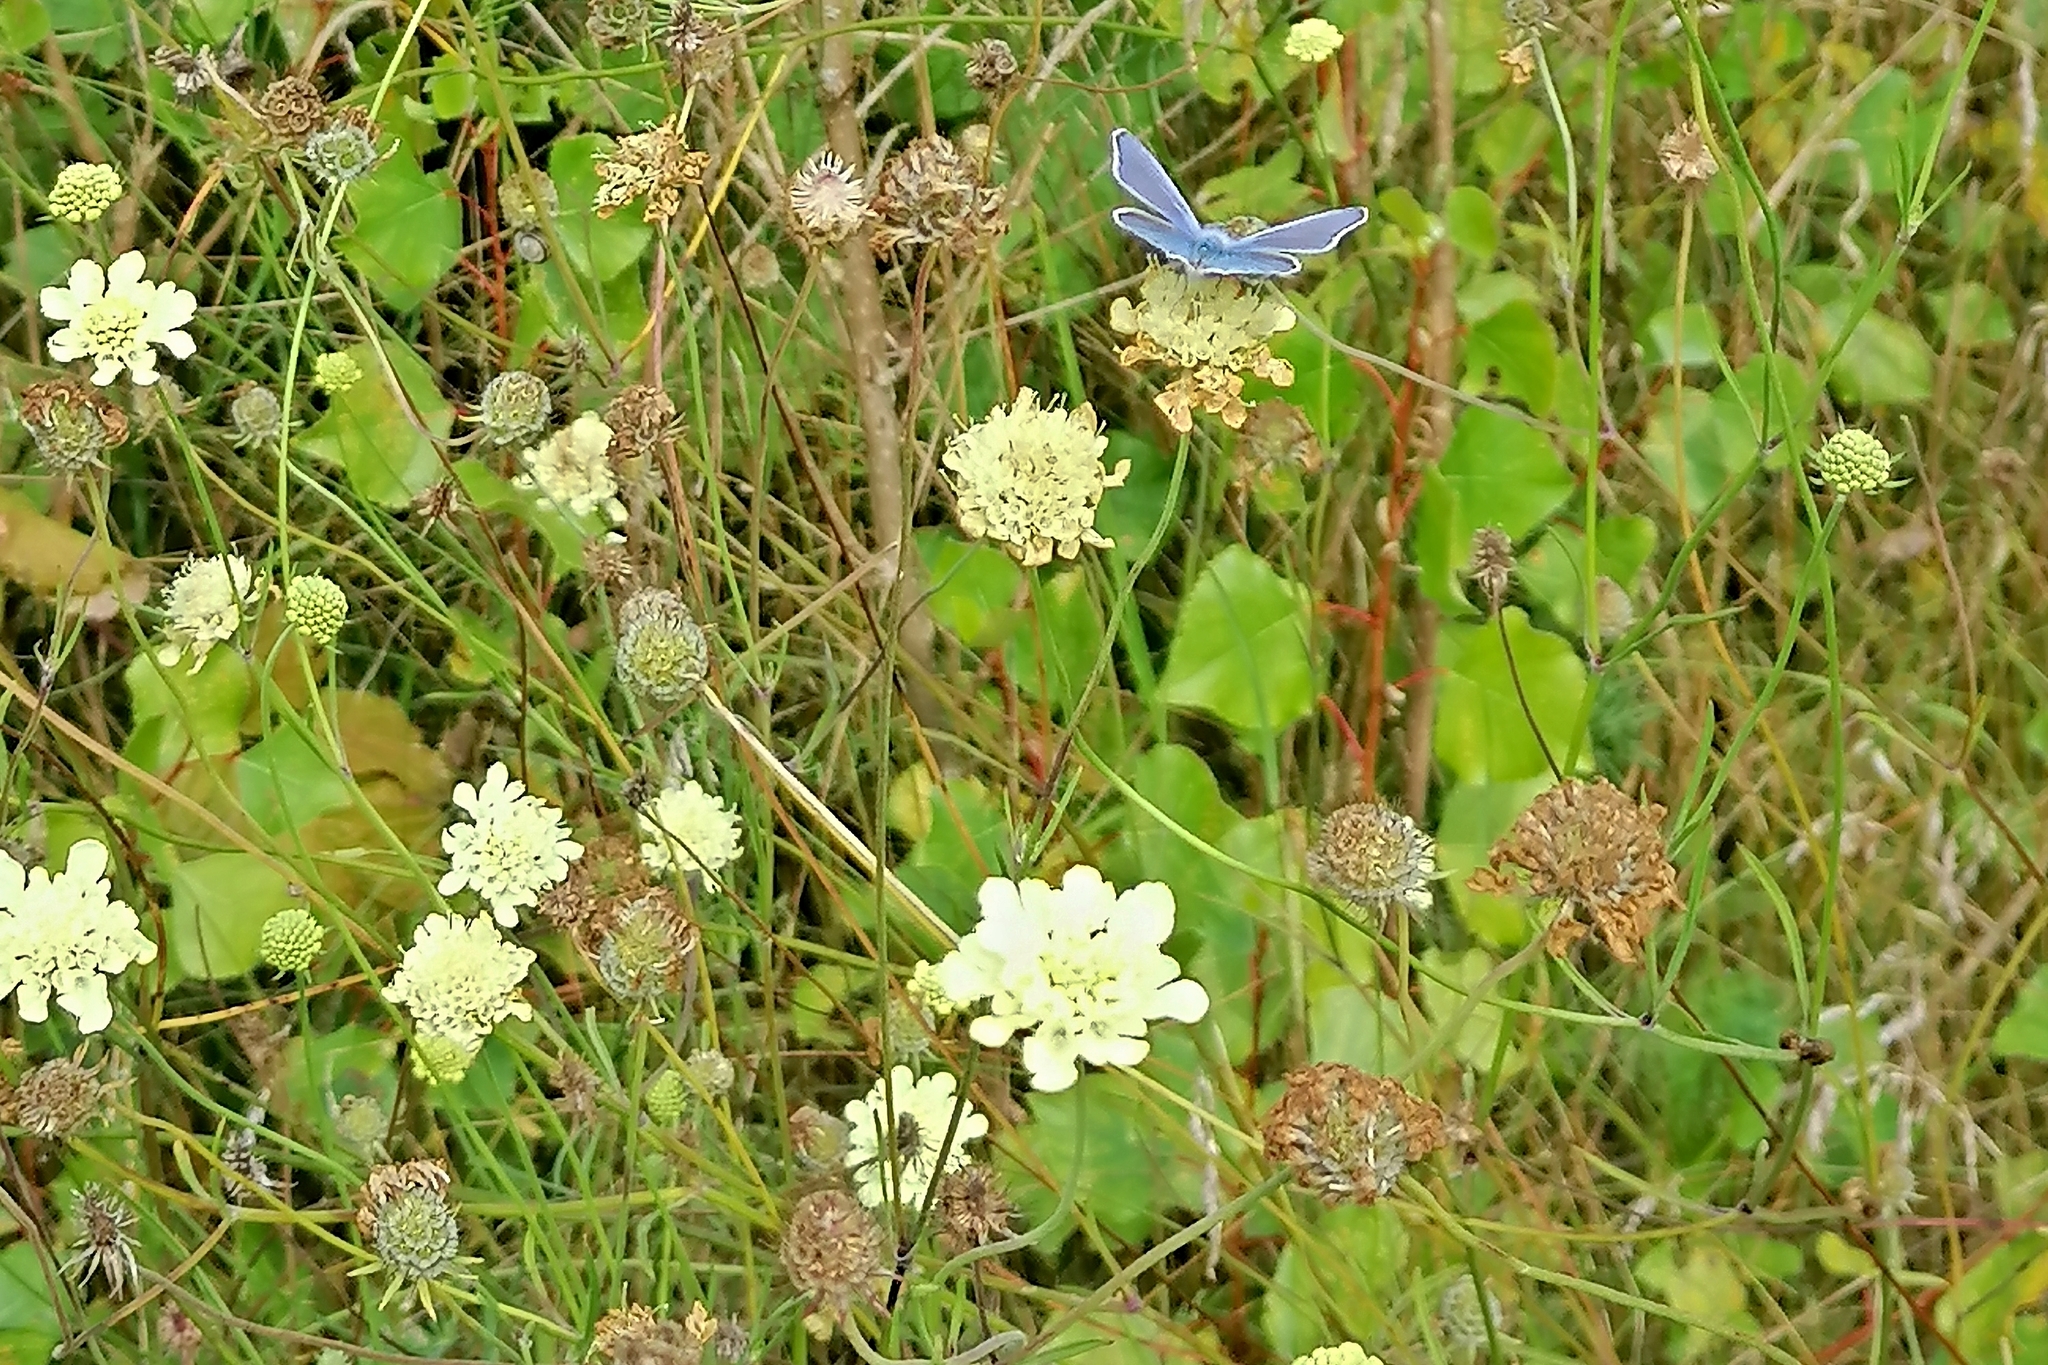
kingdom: Plantae
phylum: Tracheophyta
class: Magnoliopsida
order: Dipsacales
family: Caprifoliaceae
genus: Scabiosa
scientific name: Scabiosa ochroleuca
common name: Cream pincushions
